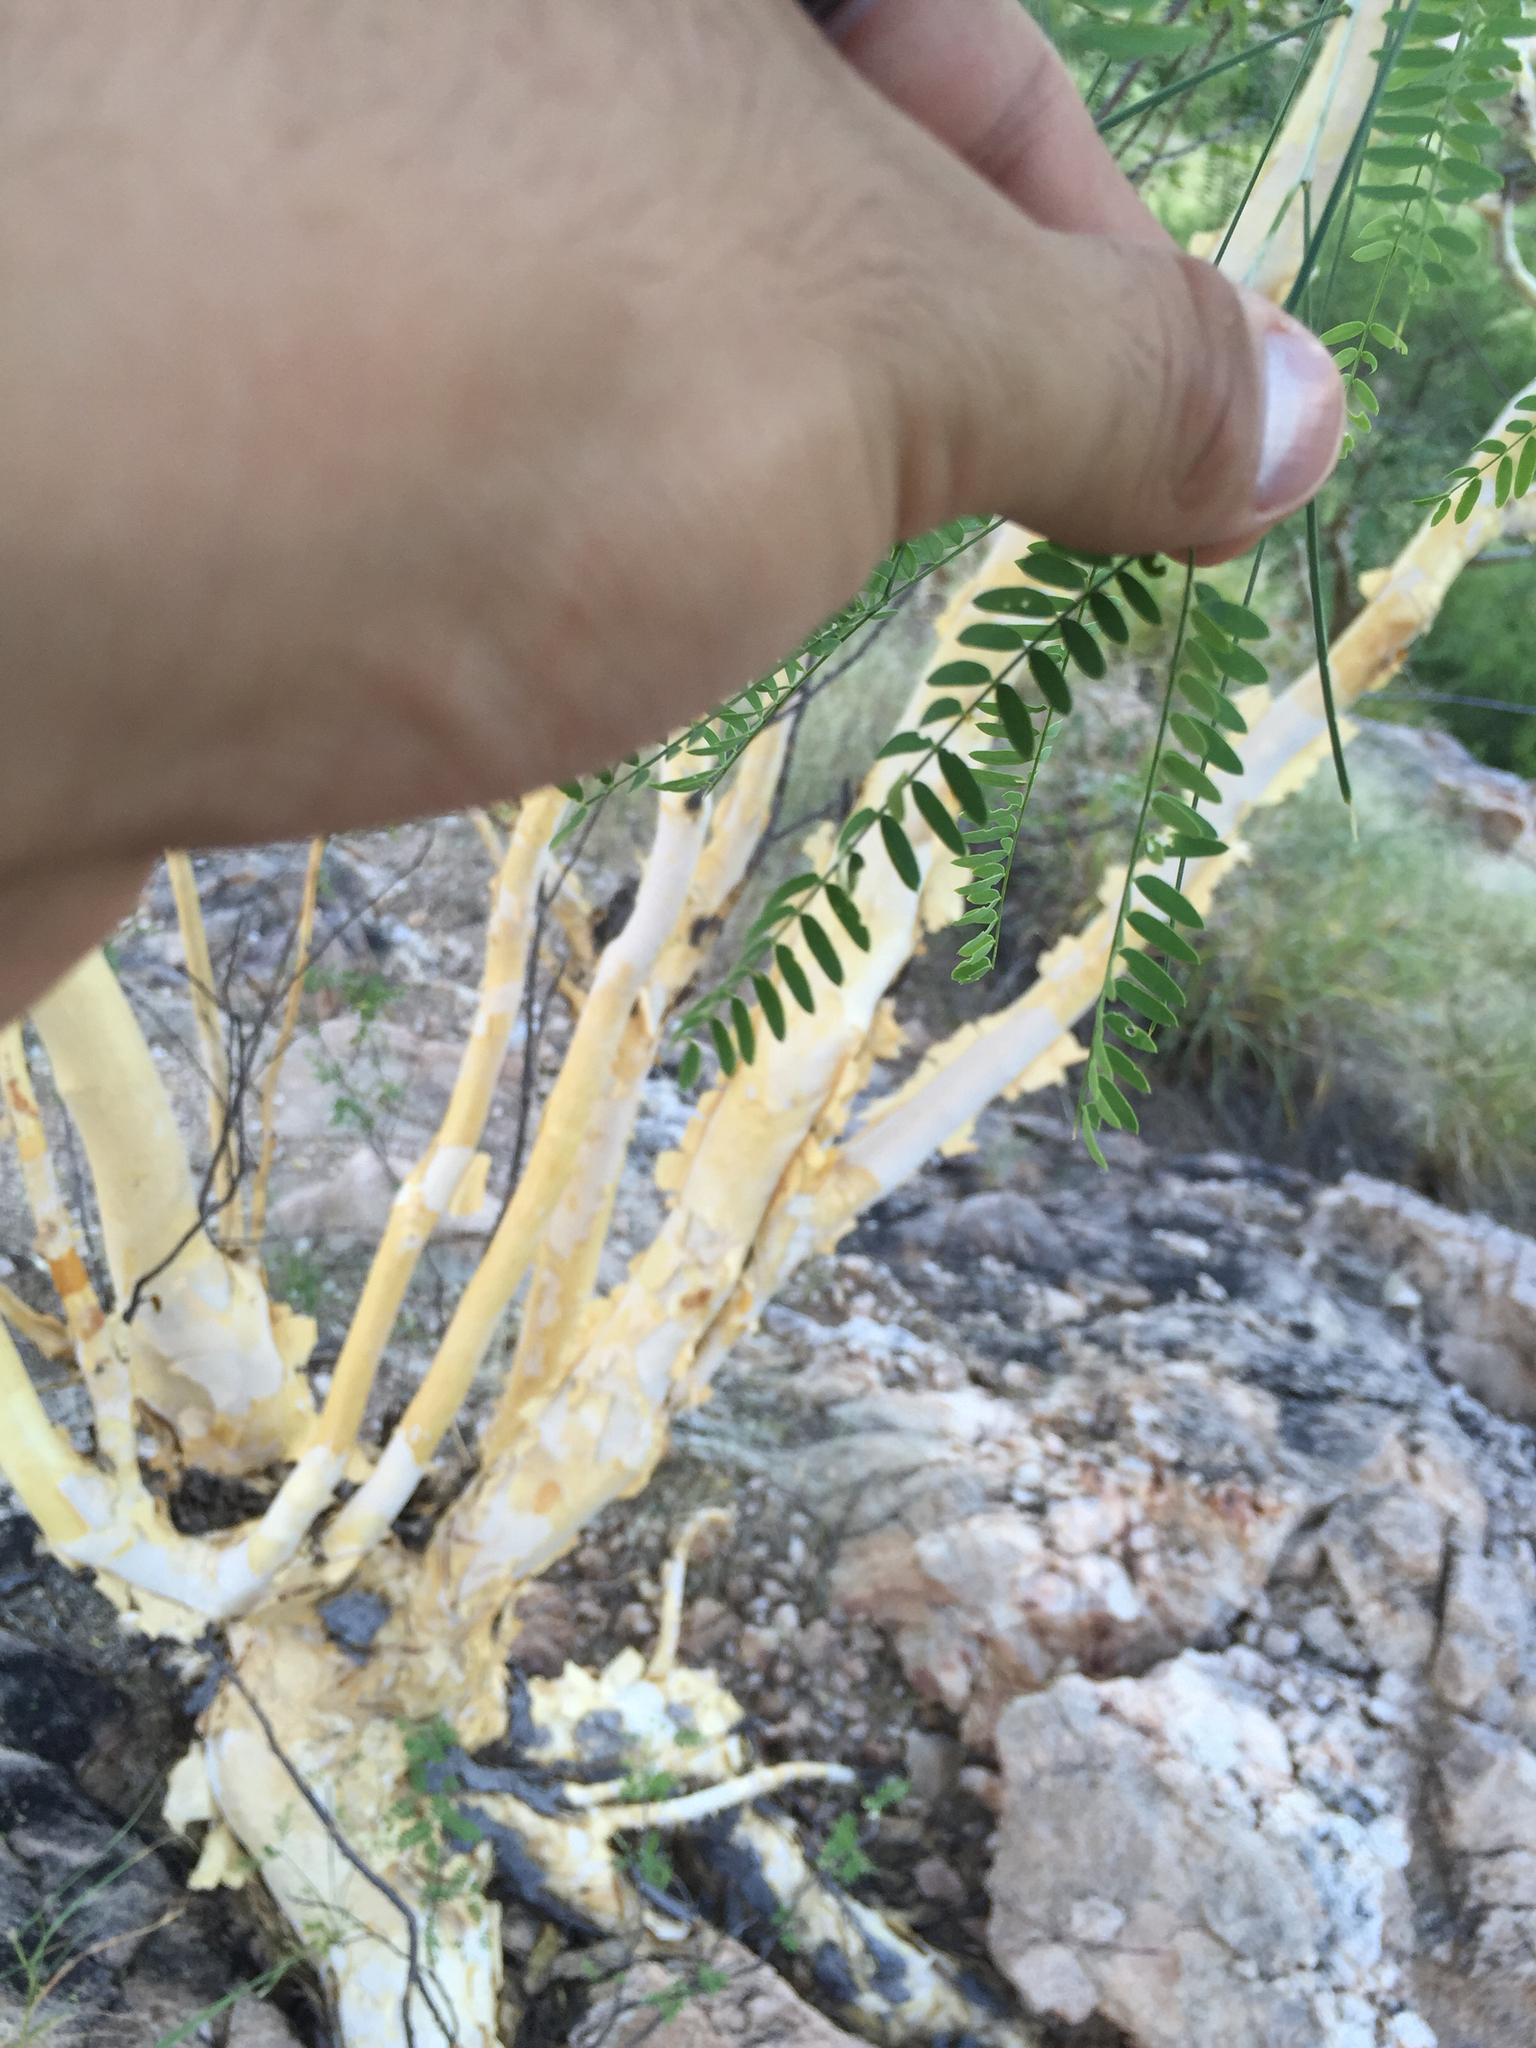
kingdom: Plantae
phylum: Tracheophyta
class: Magnoliopsida
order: Fabales
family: Fabaceae
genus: Mariosousa
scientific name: Mariosousa heterophylla
